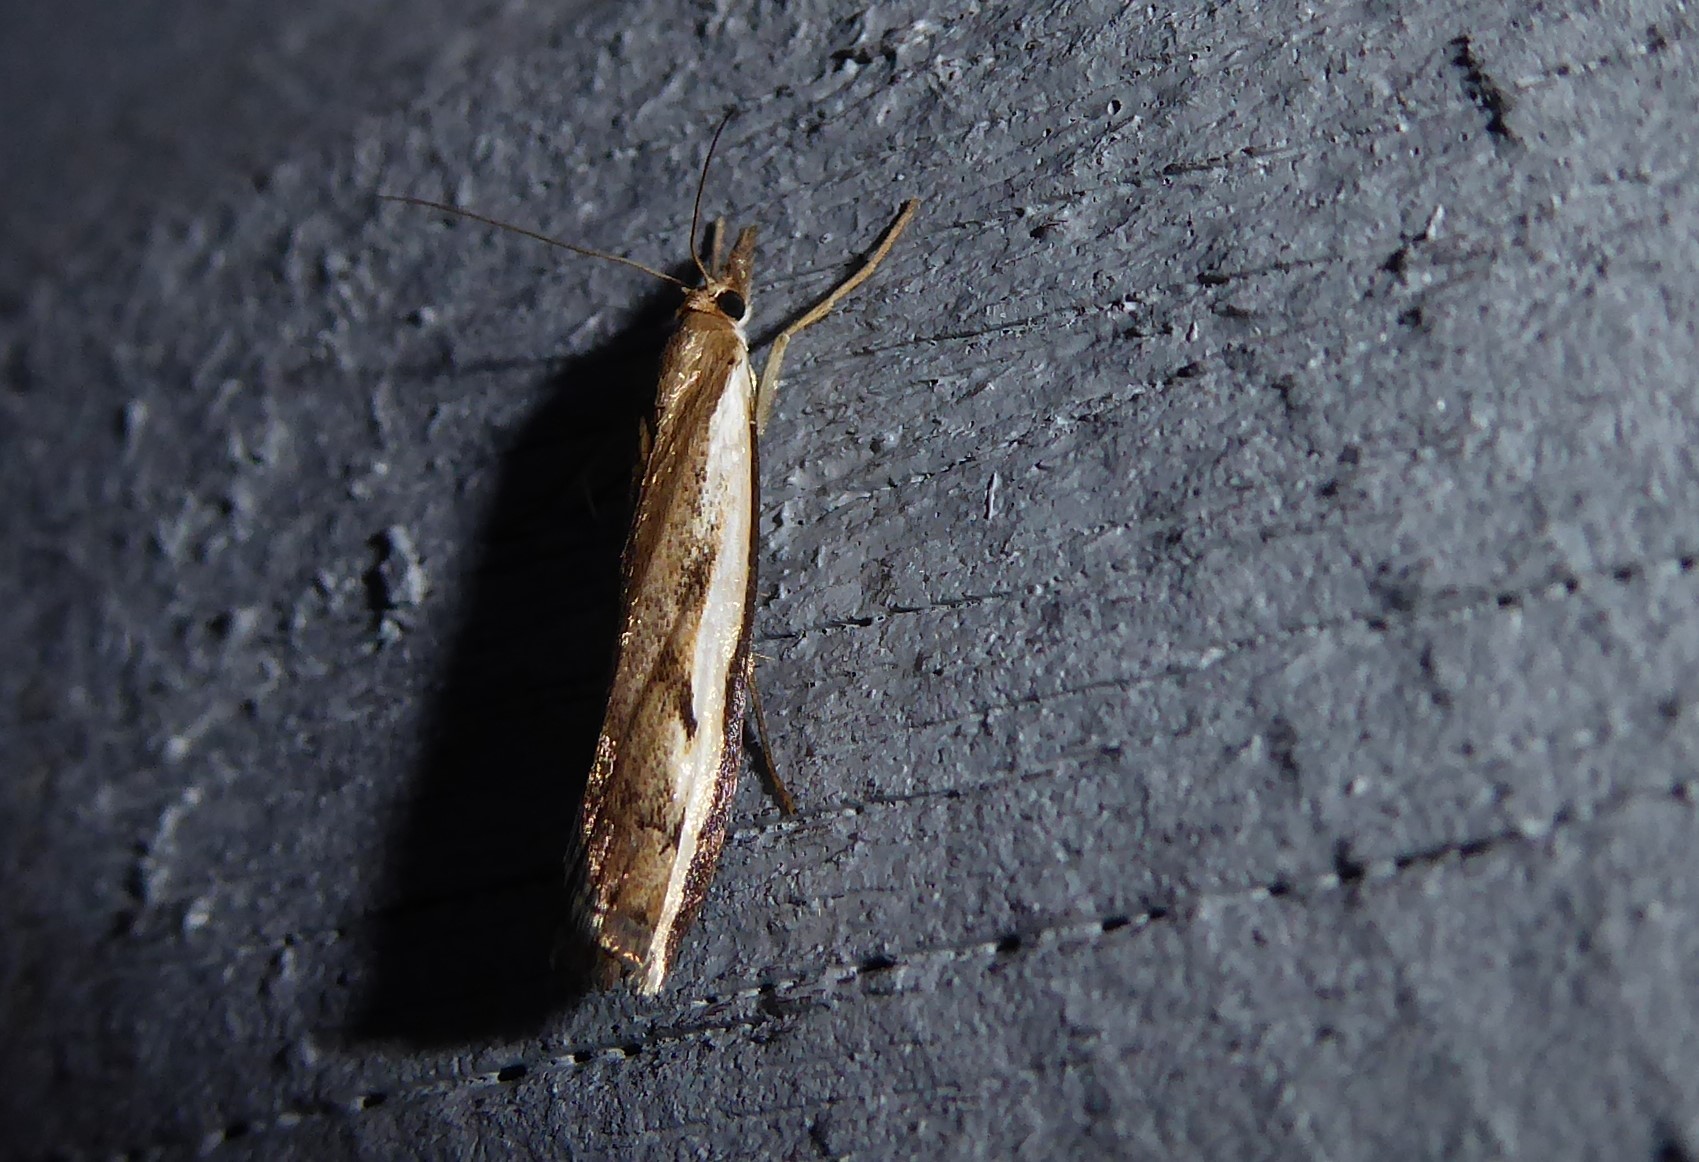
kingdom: Animalia
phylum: Arthropoda
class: Insecta
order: Lepidoptera
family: Crambidae
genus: Orocrambus
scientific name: Orocrambus flexuosellus
